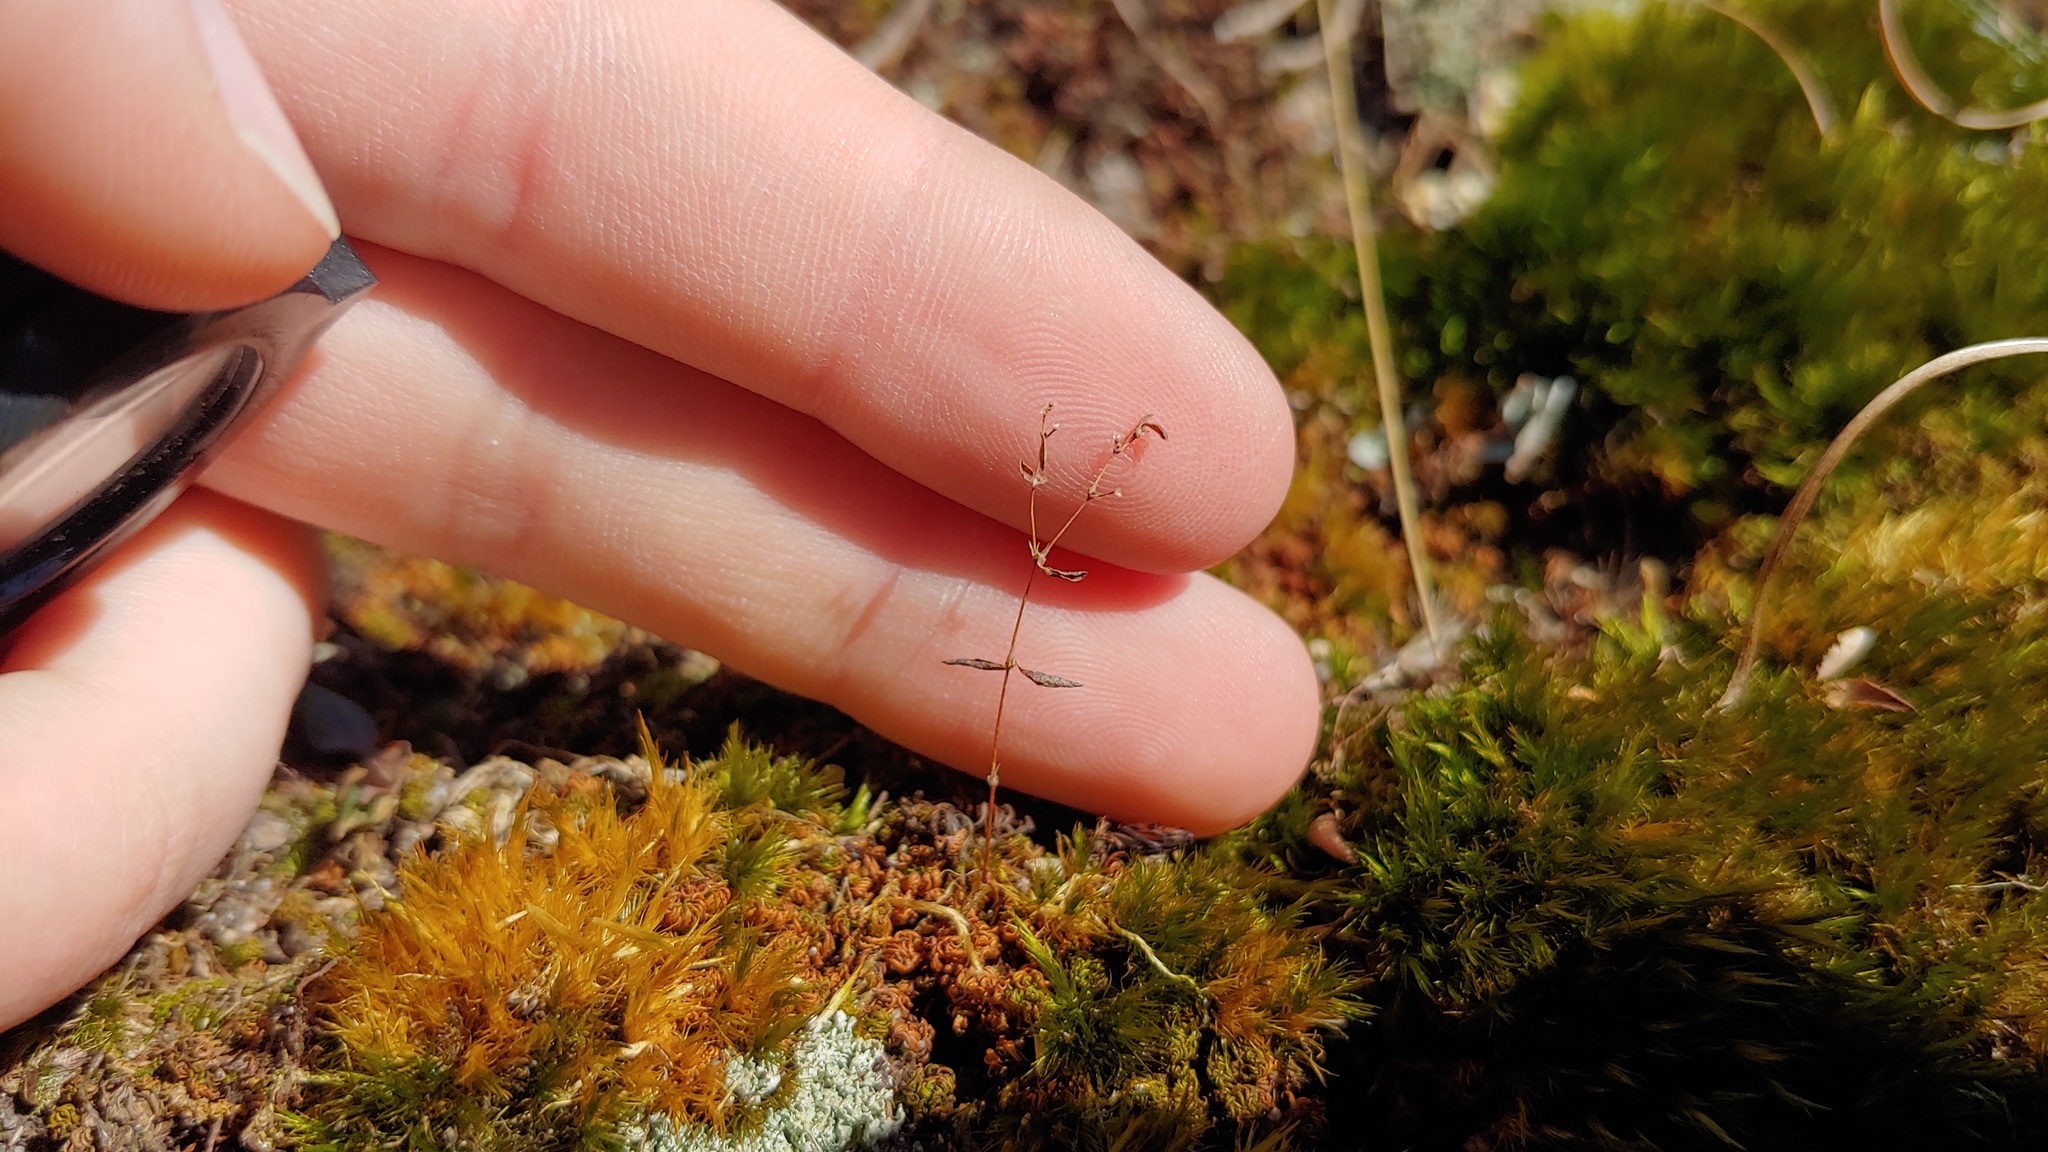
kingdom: Plantae
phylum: Tracheophyta
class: Magnoliopsida
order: Caryophyllales
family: Caryophyllaceae
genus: Paronychia
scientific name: Paronychia canadensis
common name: Canada forked nailwort
